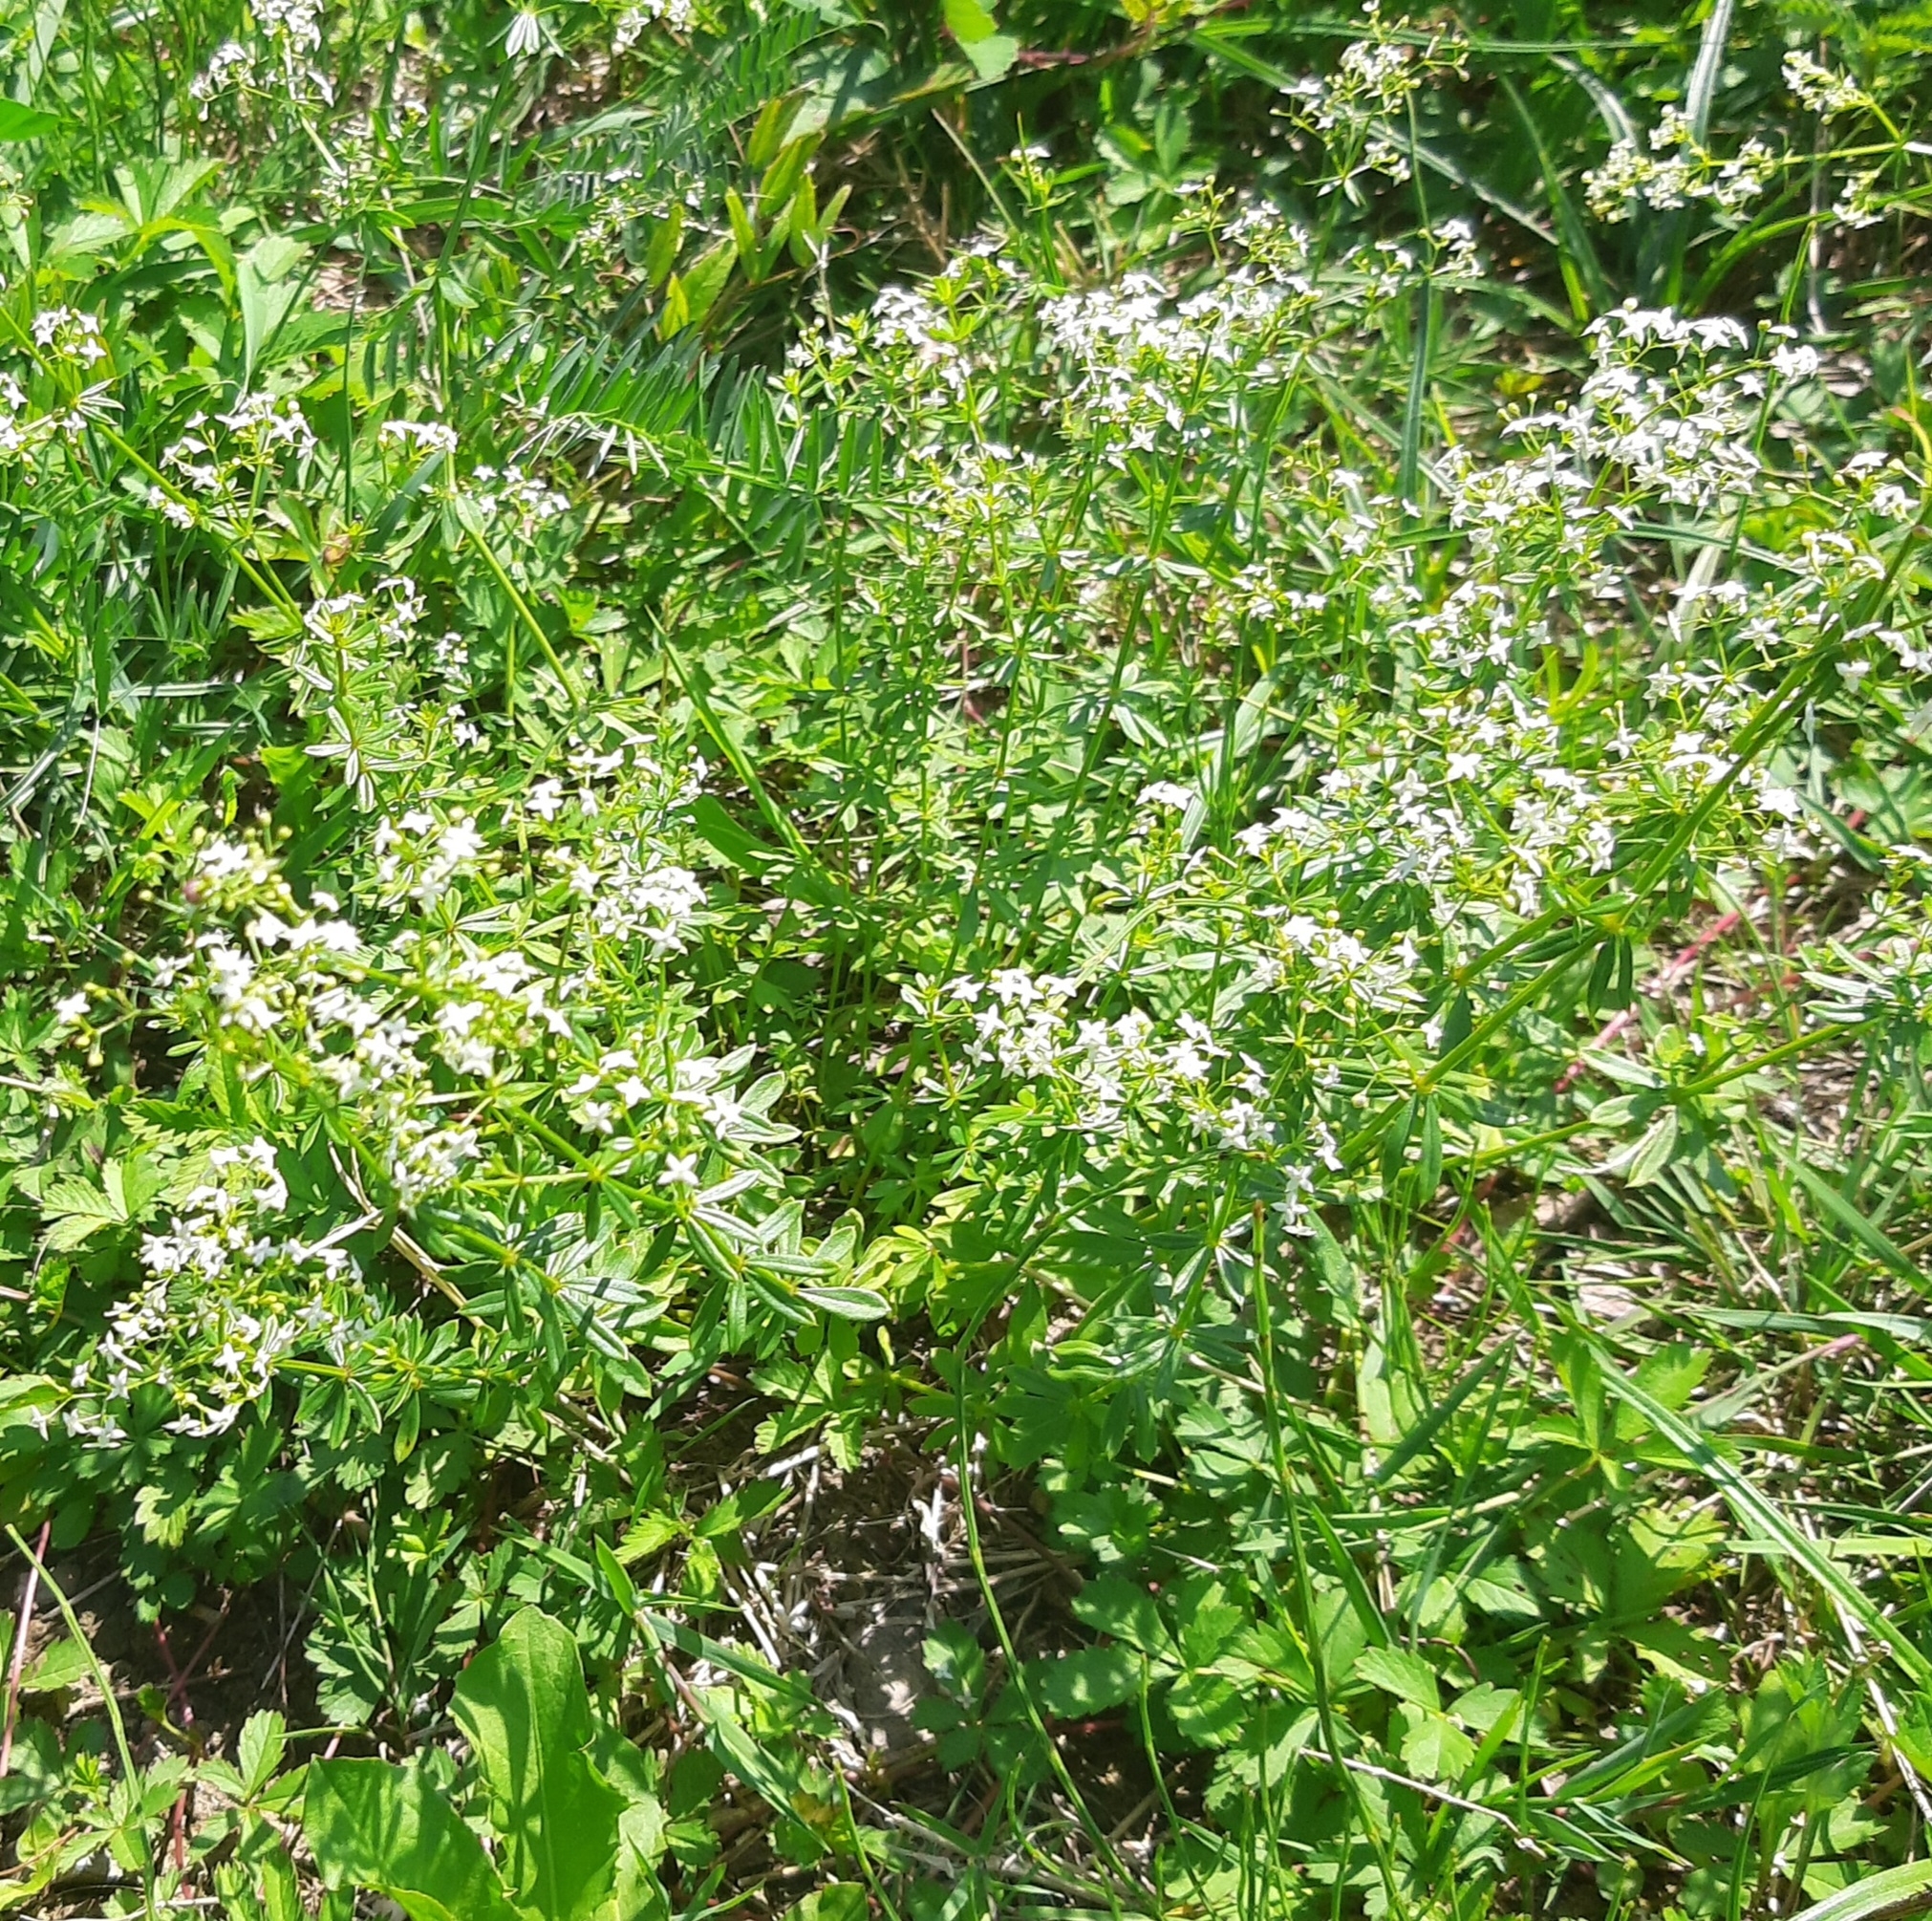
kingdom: Plantae
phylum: Tracheophyta
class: Magnoliopsida
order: Gentianales
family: Rubiaceae
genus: Galium
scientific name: Galium album
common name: White bedstraw
